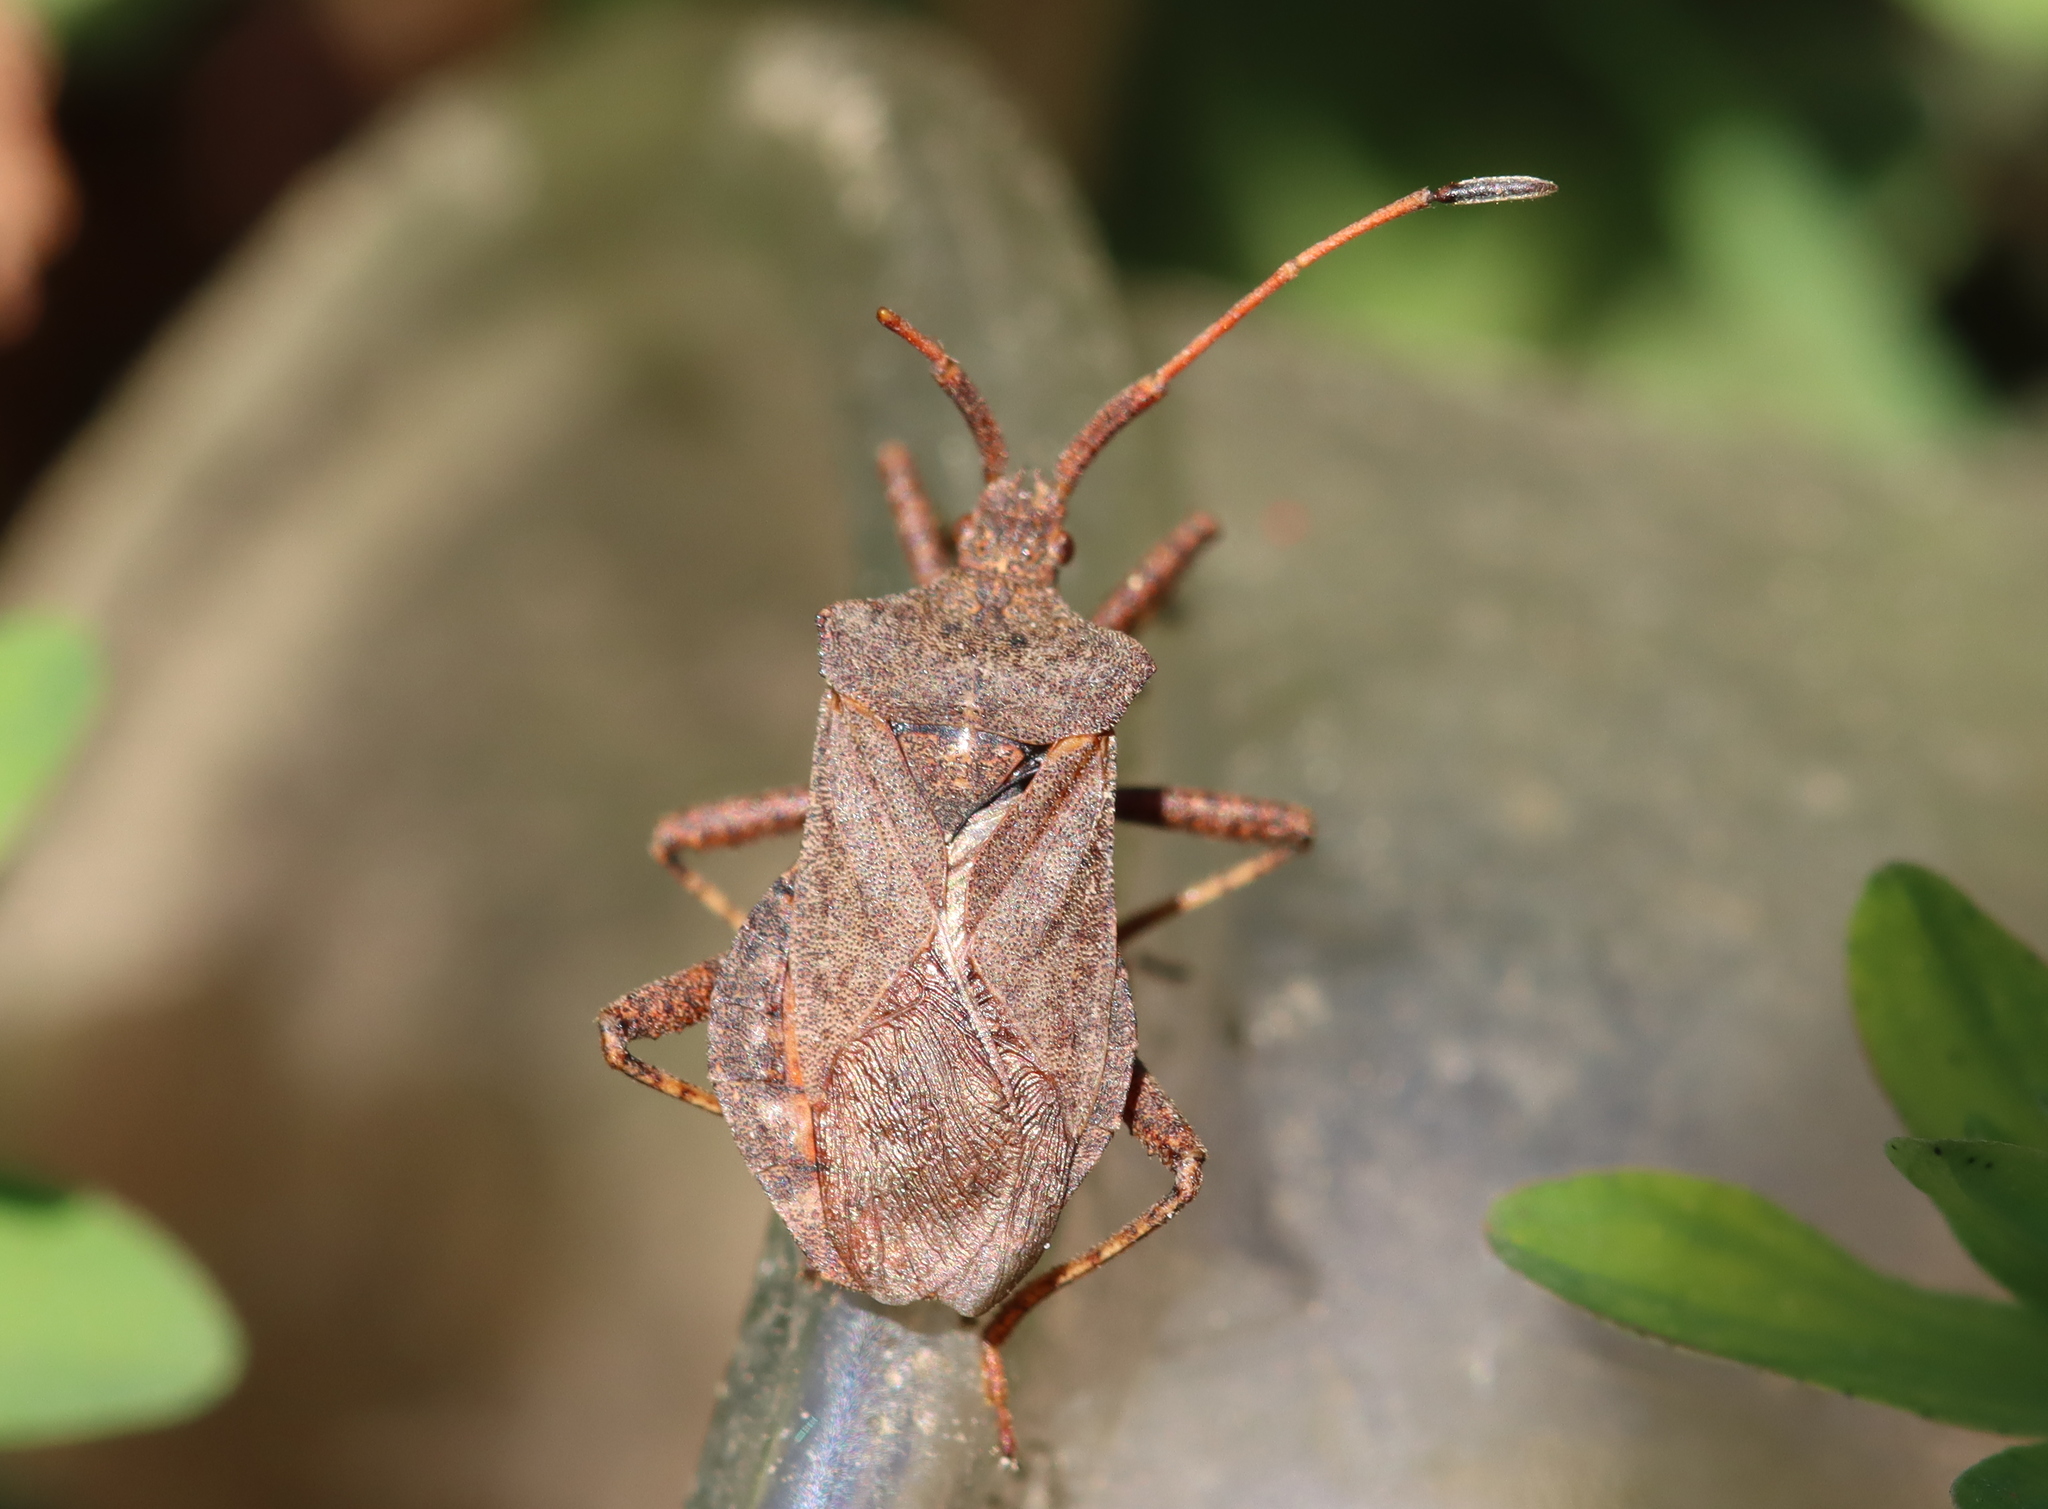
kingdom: Animalia
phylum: Arthropoda
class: Insecta
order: Hemiptera
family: Coreidae
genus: Coreus
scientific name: Coreus marginatus
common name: Dock bug
